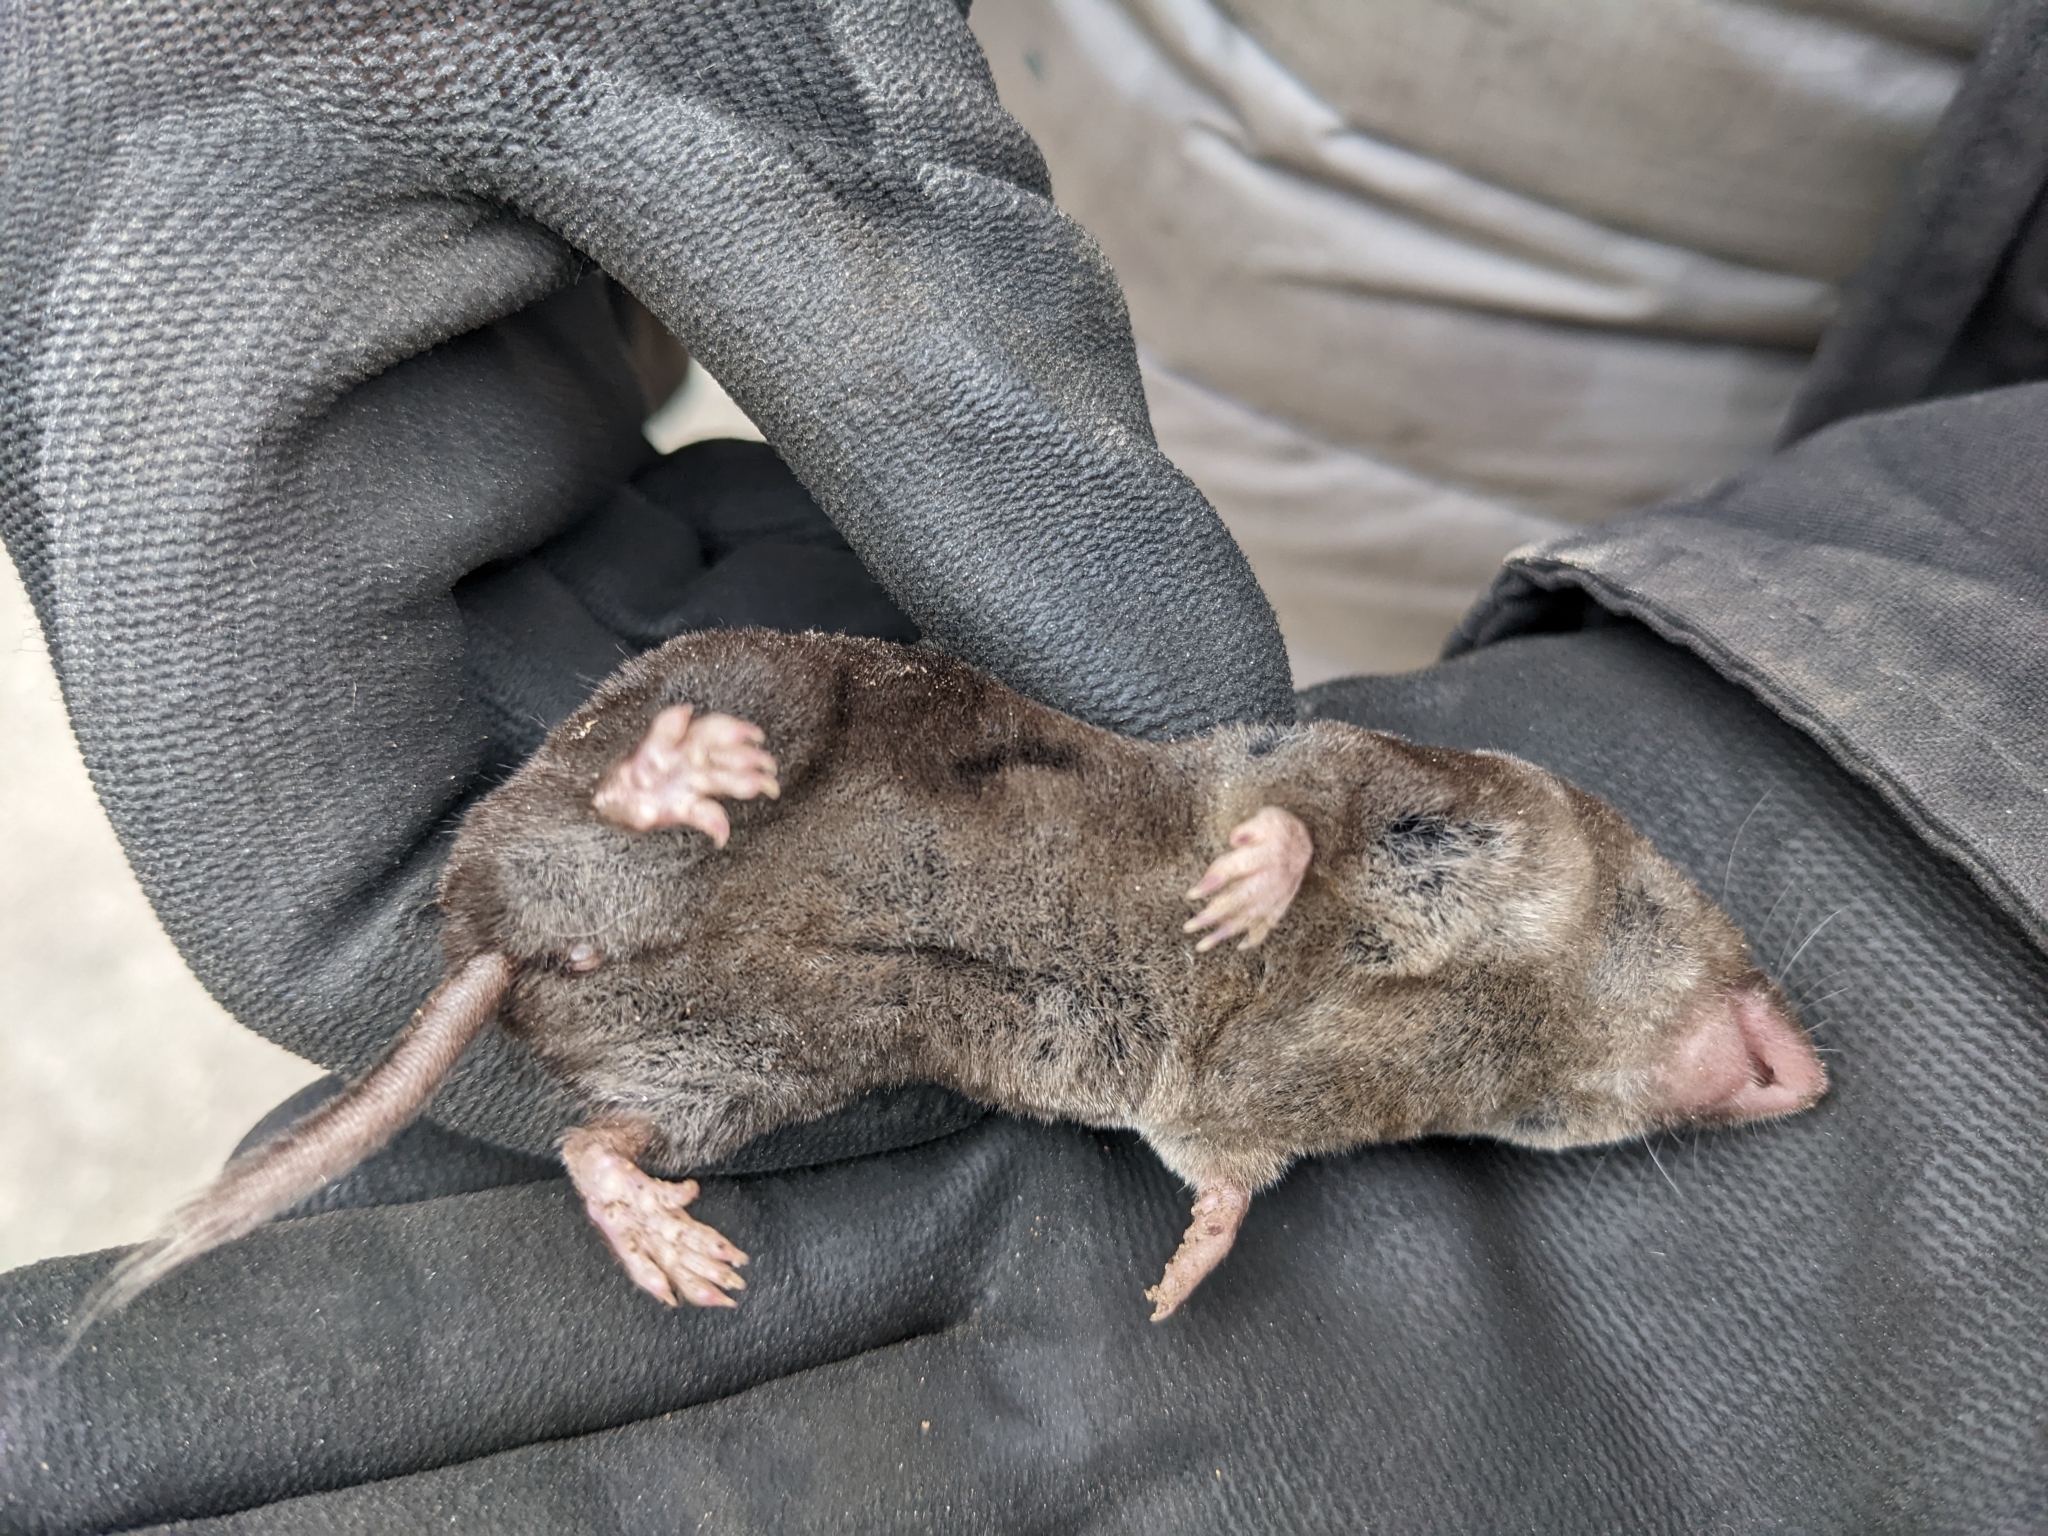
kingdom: Animalia
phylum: Chordata
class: Mammalia
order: Soricomorpha
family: Soricidae
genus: Blarina
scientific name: Blarina brevicauda
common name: Northern short-tailed shrew
